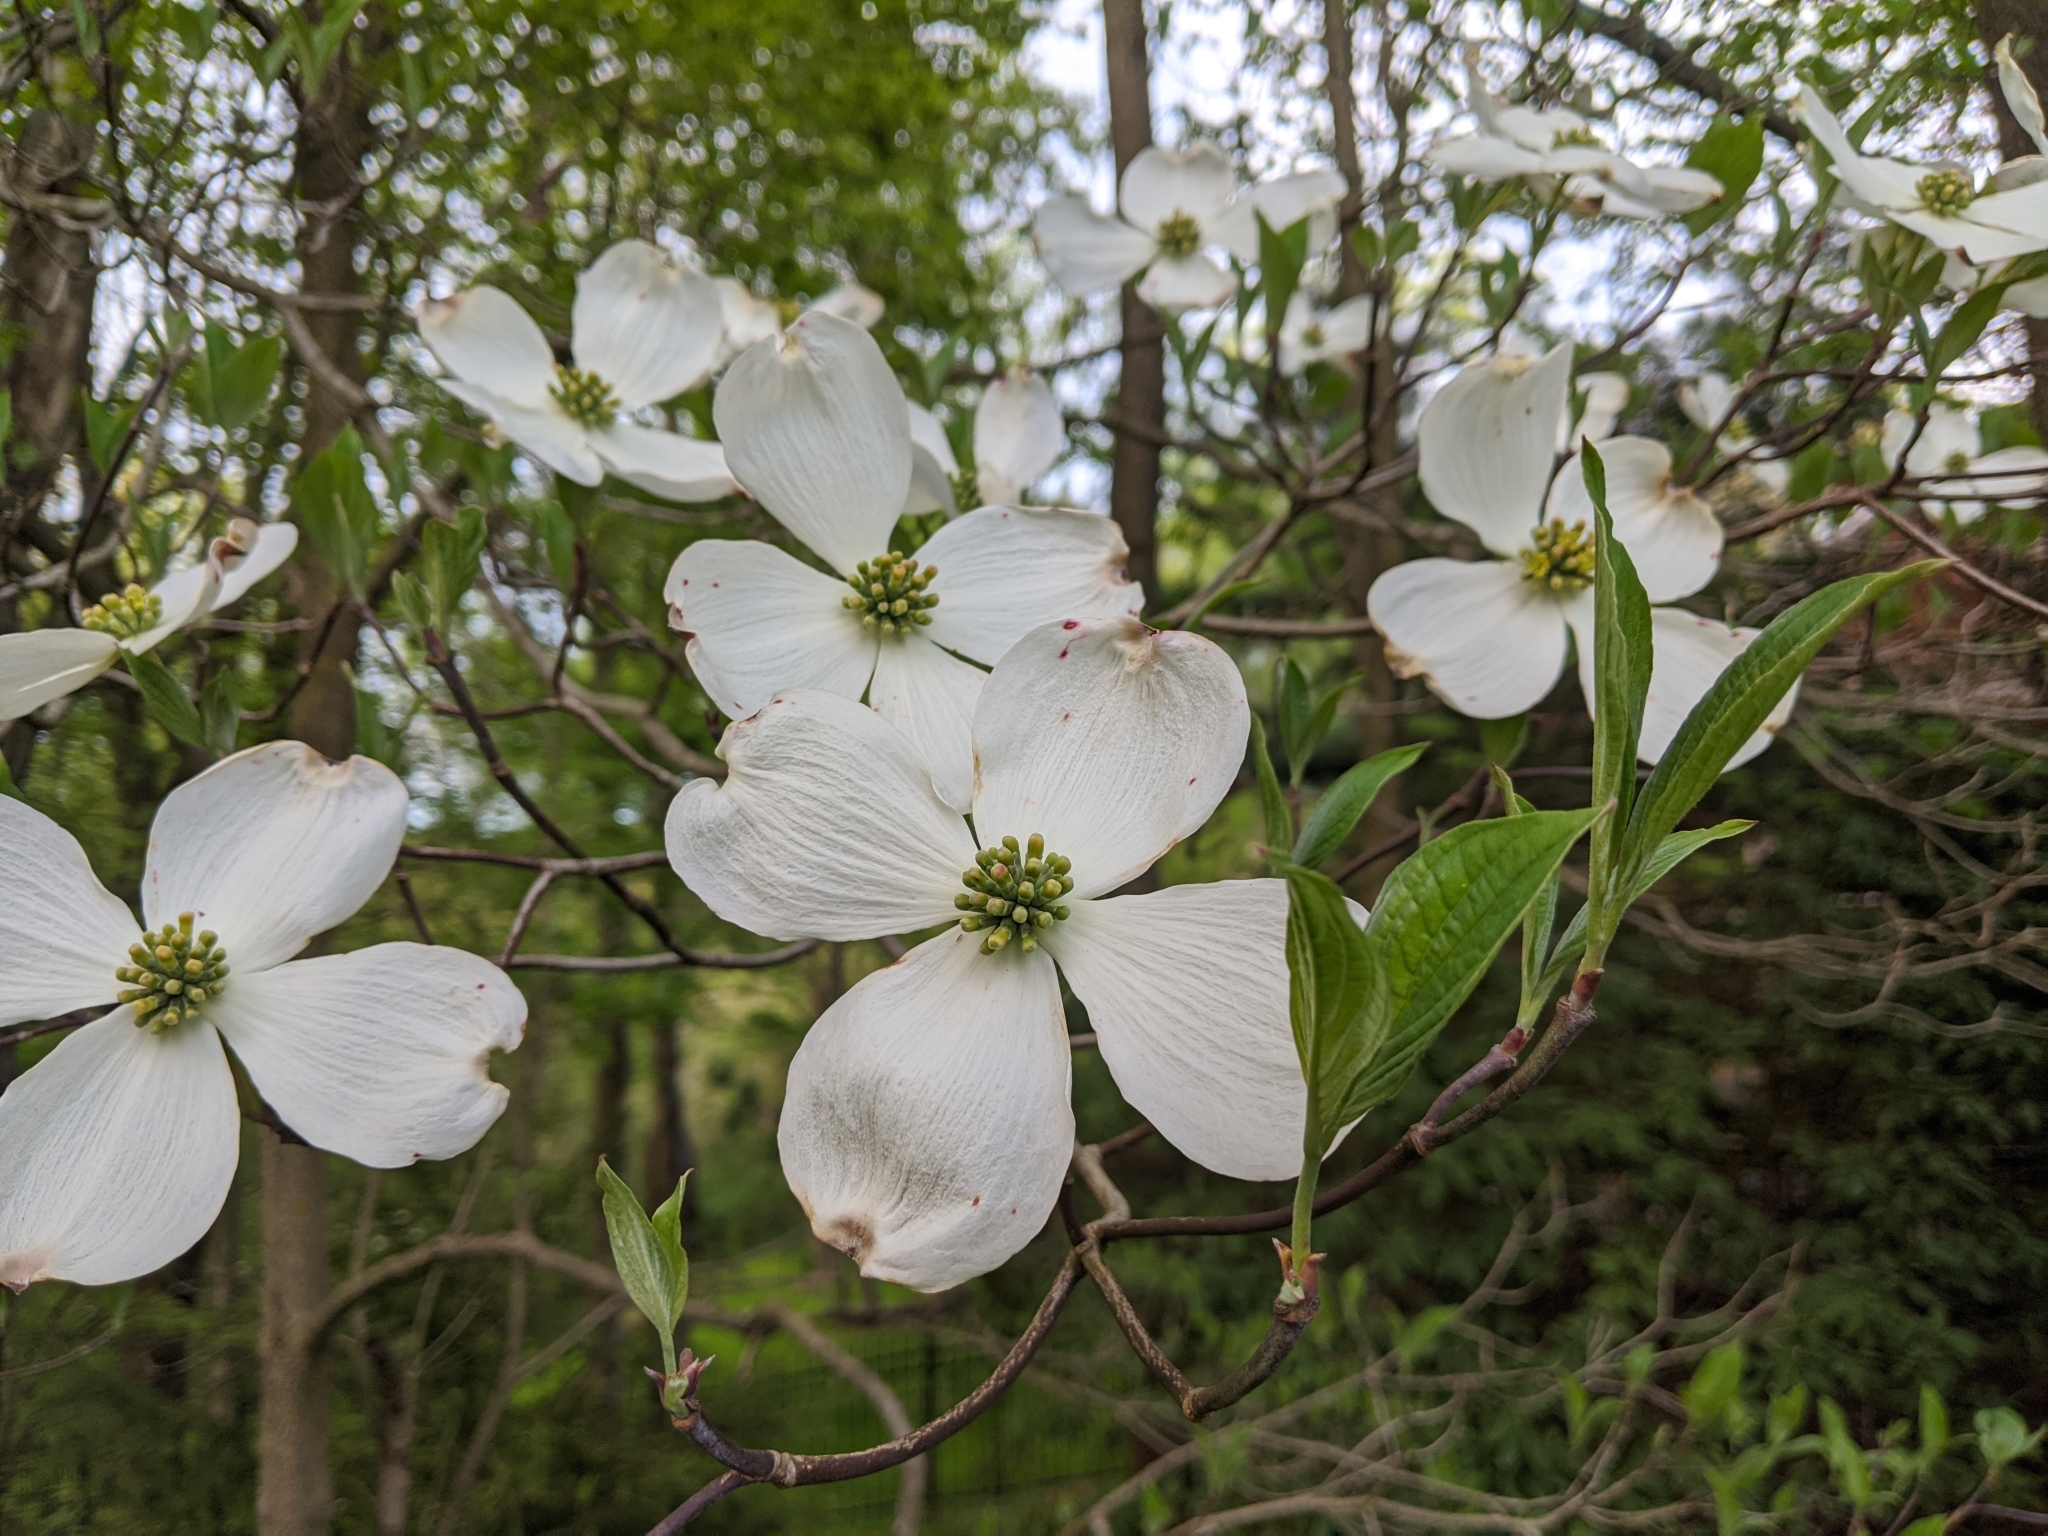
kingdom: Plantae
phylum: Tracheophyta
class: Magnoliopsida
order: Cornales
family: Cornaceae
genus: Cornus
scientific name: Cornus florida
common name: Flowering dogwood
